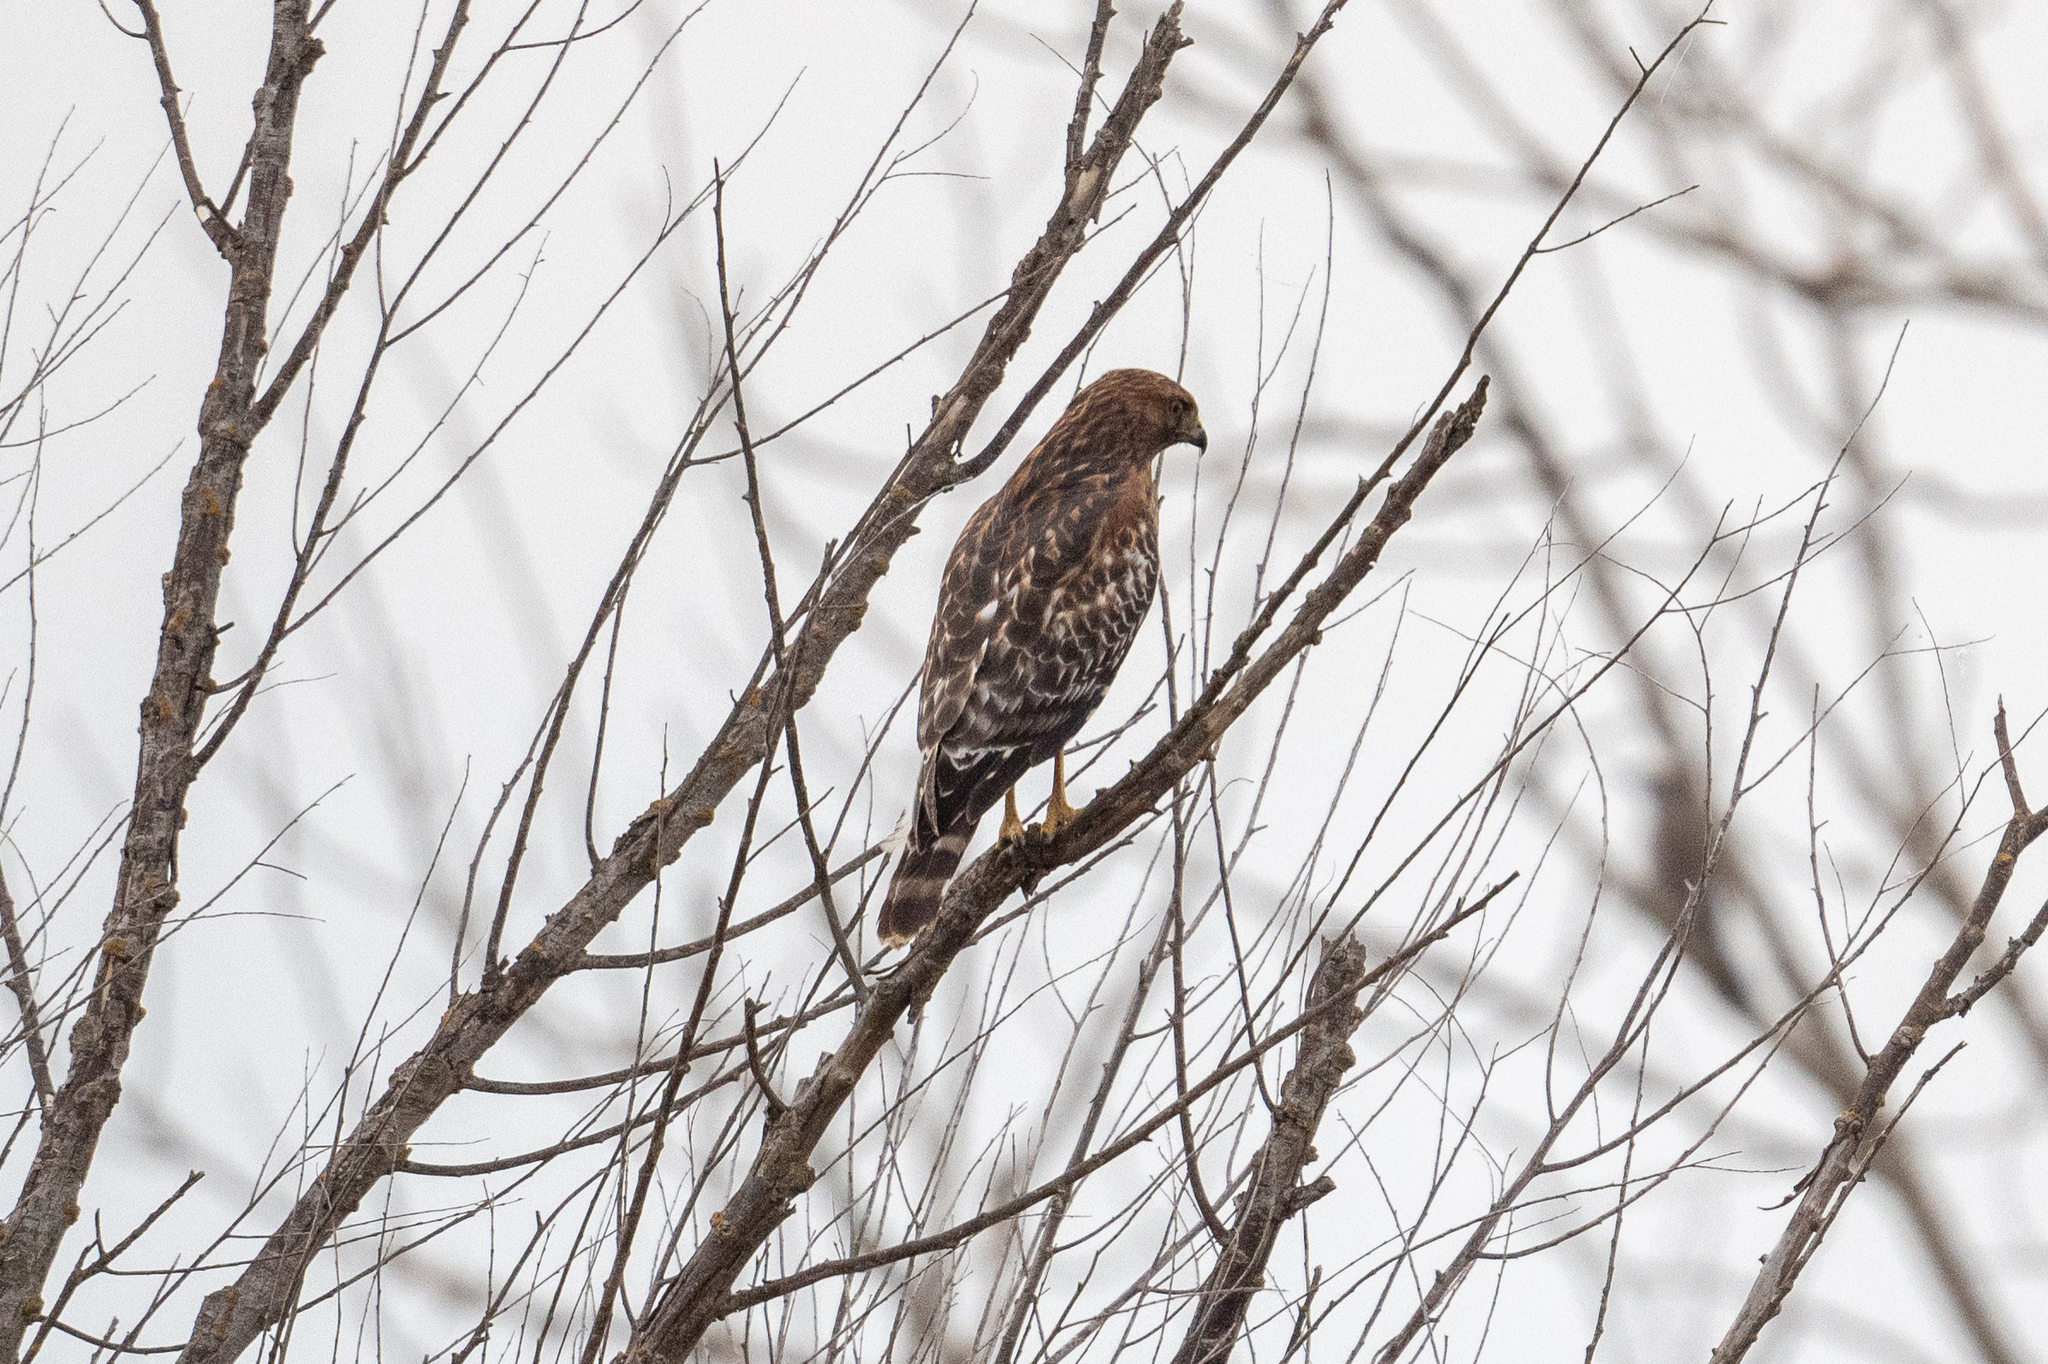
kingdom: Animalia
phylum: Chordata
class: Aves
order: Accipitriformes
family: Accipitridae
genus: Buteo
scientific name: Buteo lineatus
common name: Red-shouldered hawk
